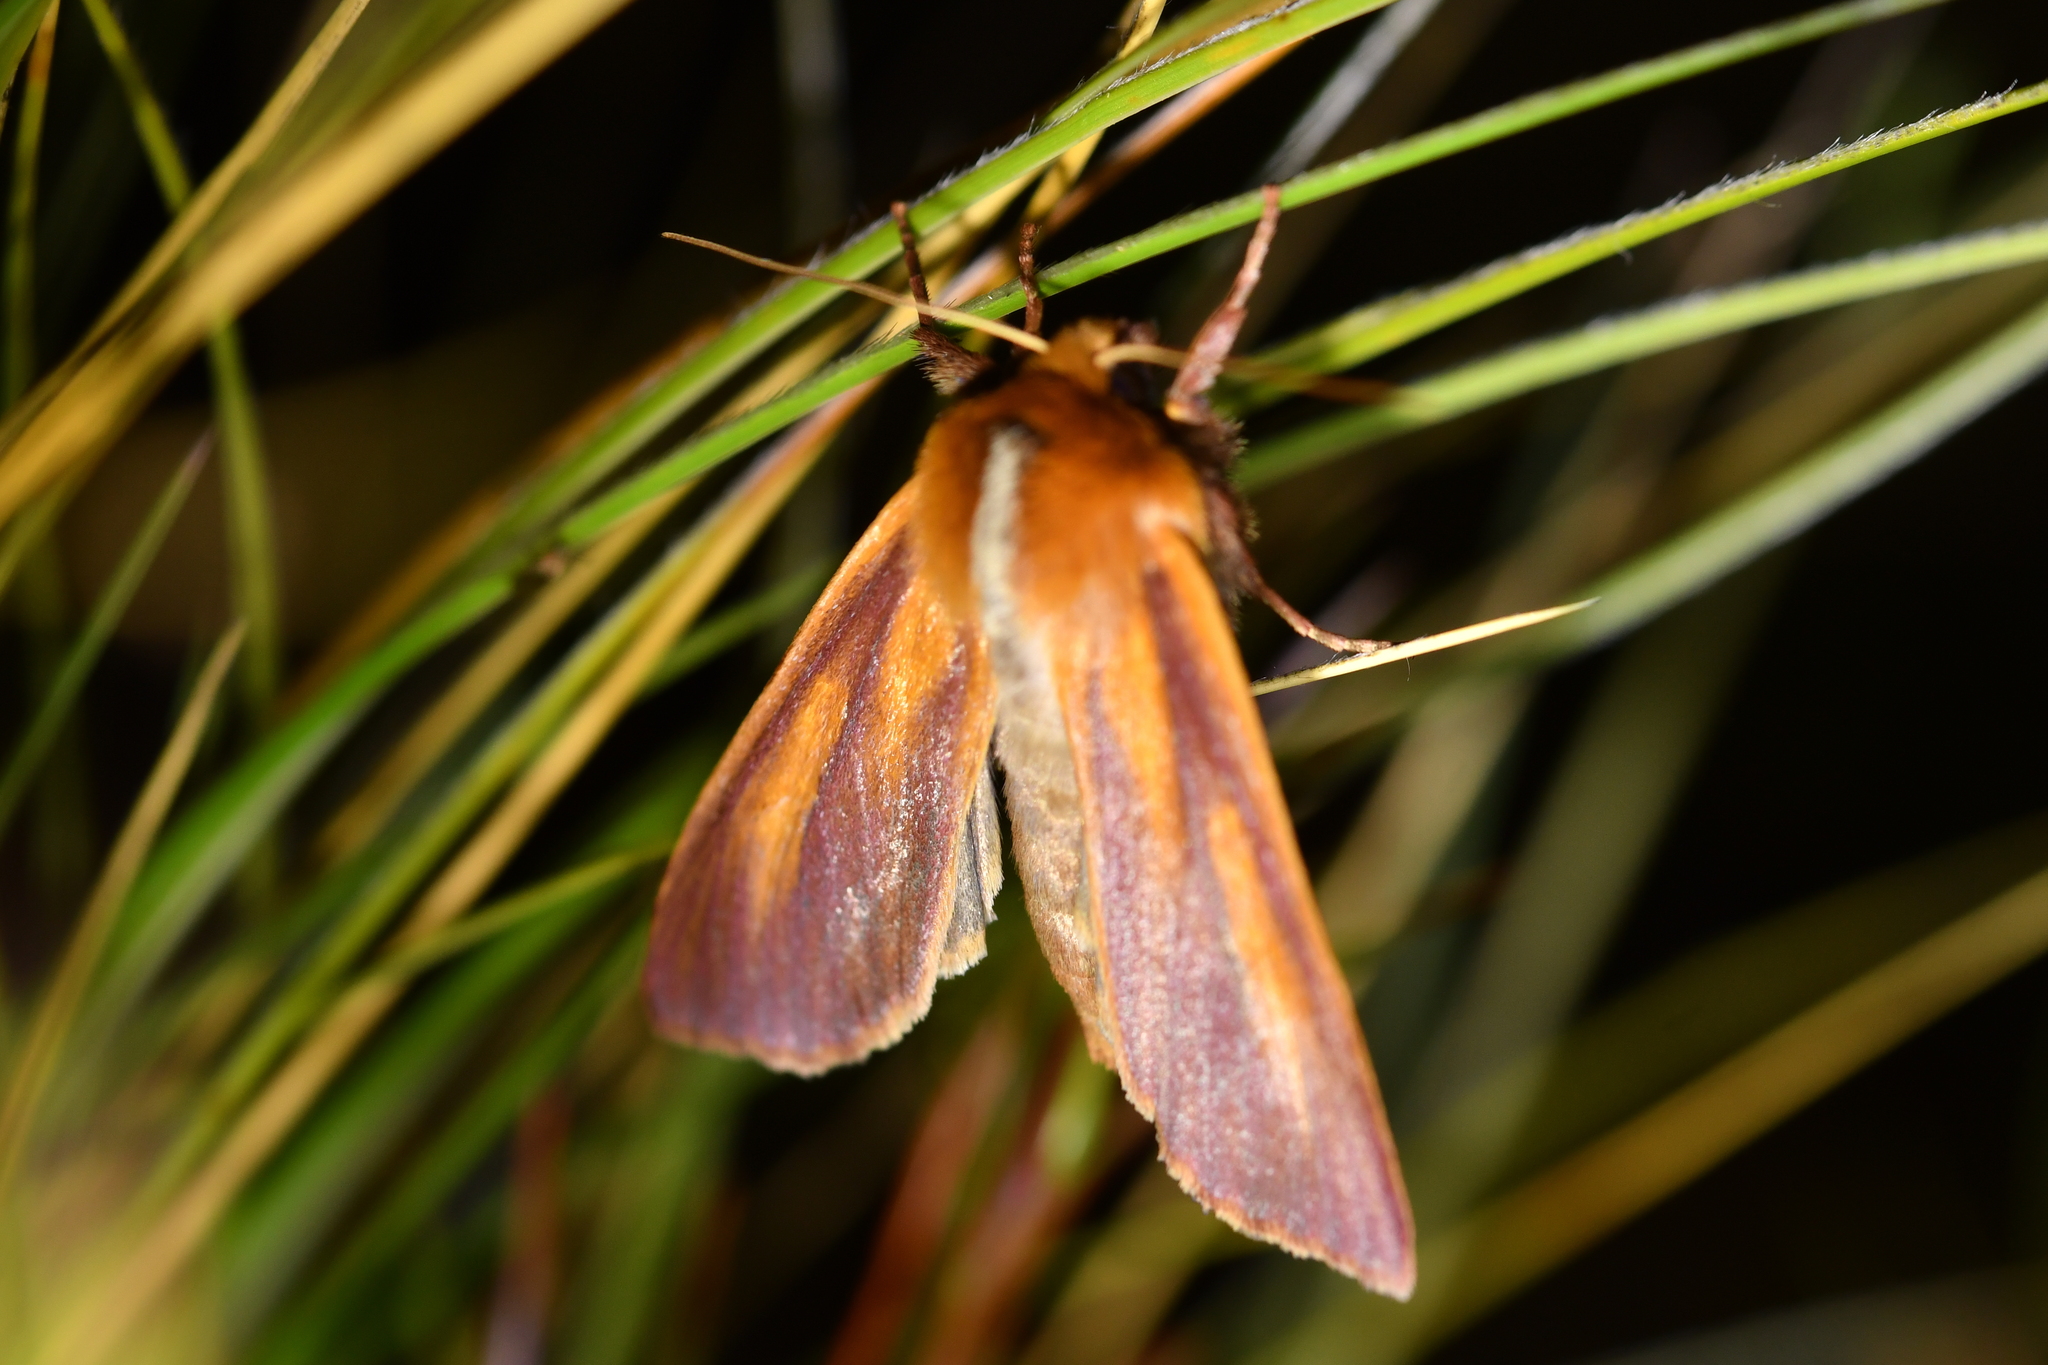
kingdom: Animalia
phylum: Arthropoda
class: Insecta
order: Lepidoptera
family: Noctuidae
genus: Ichneutica
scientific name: Ichneutica
